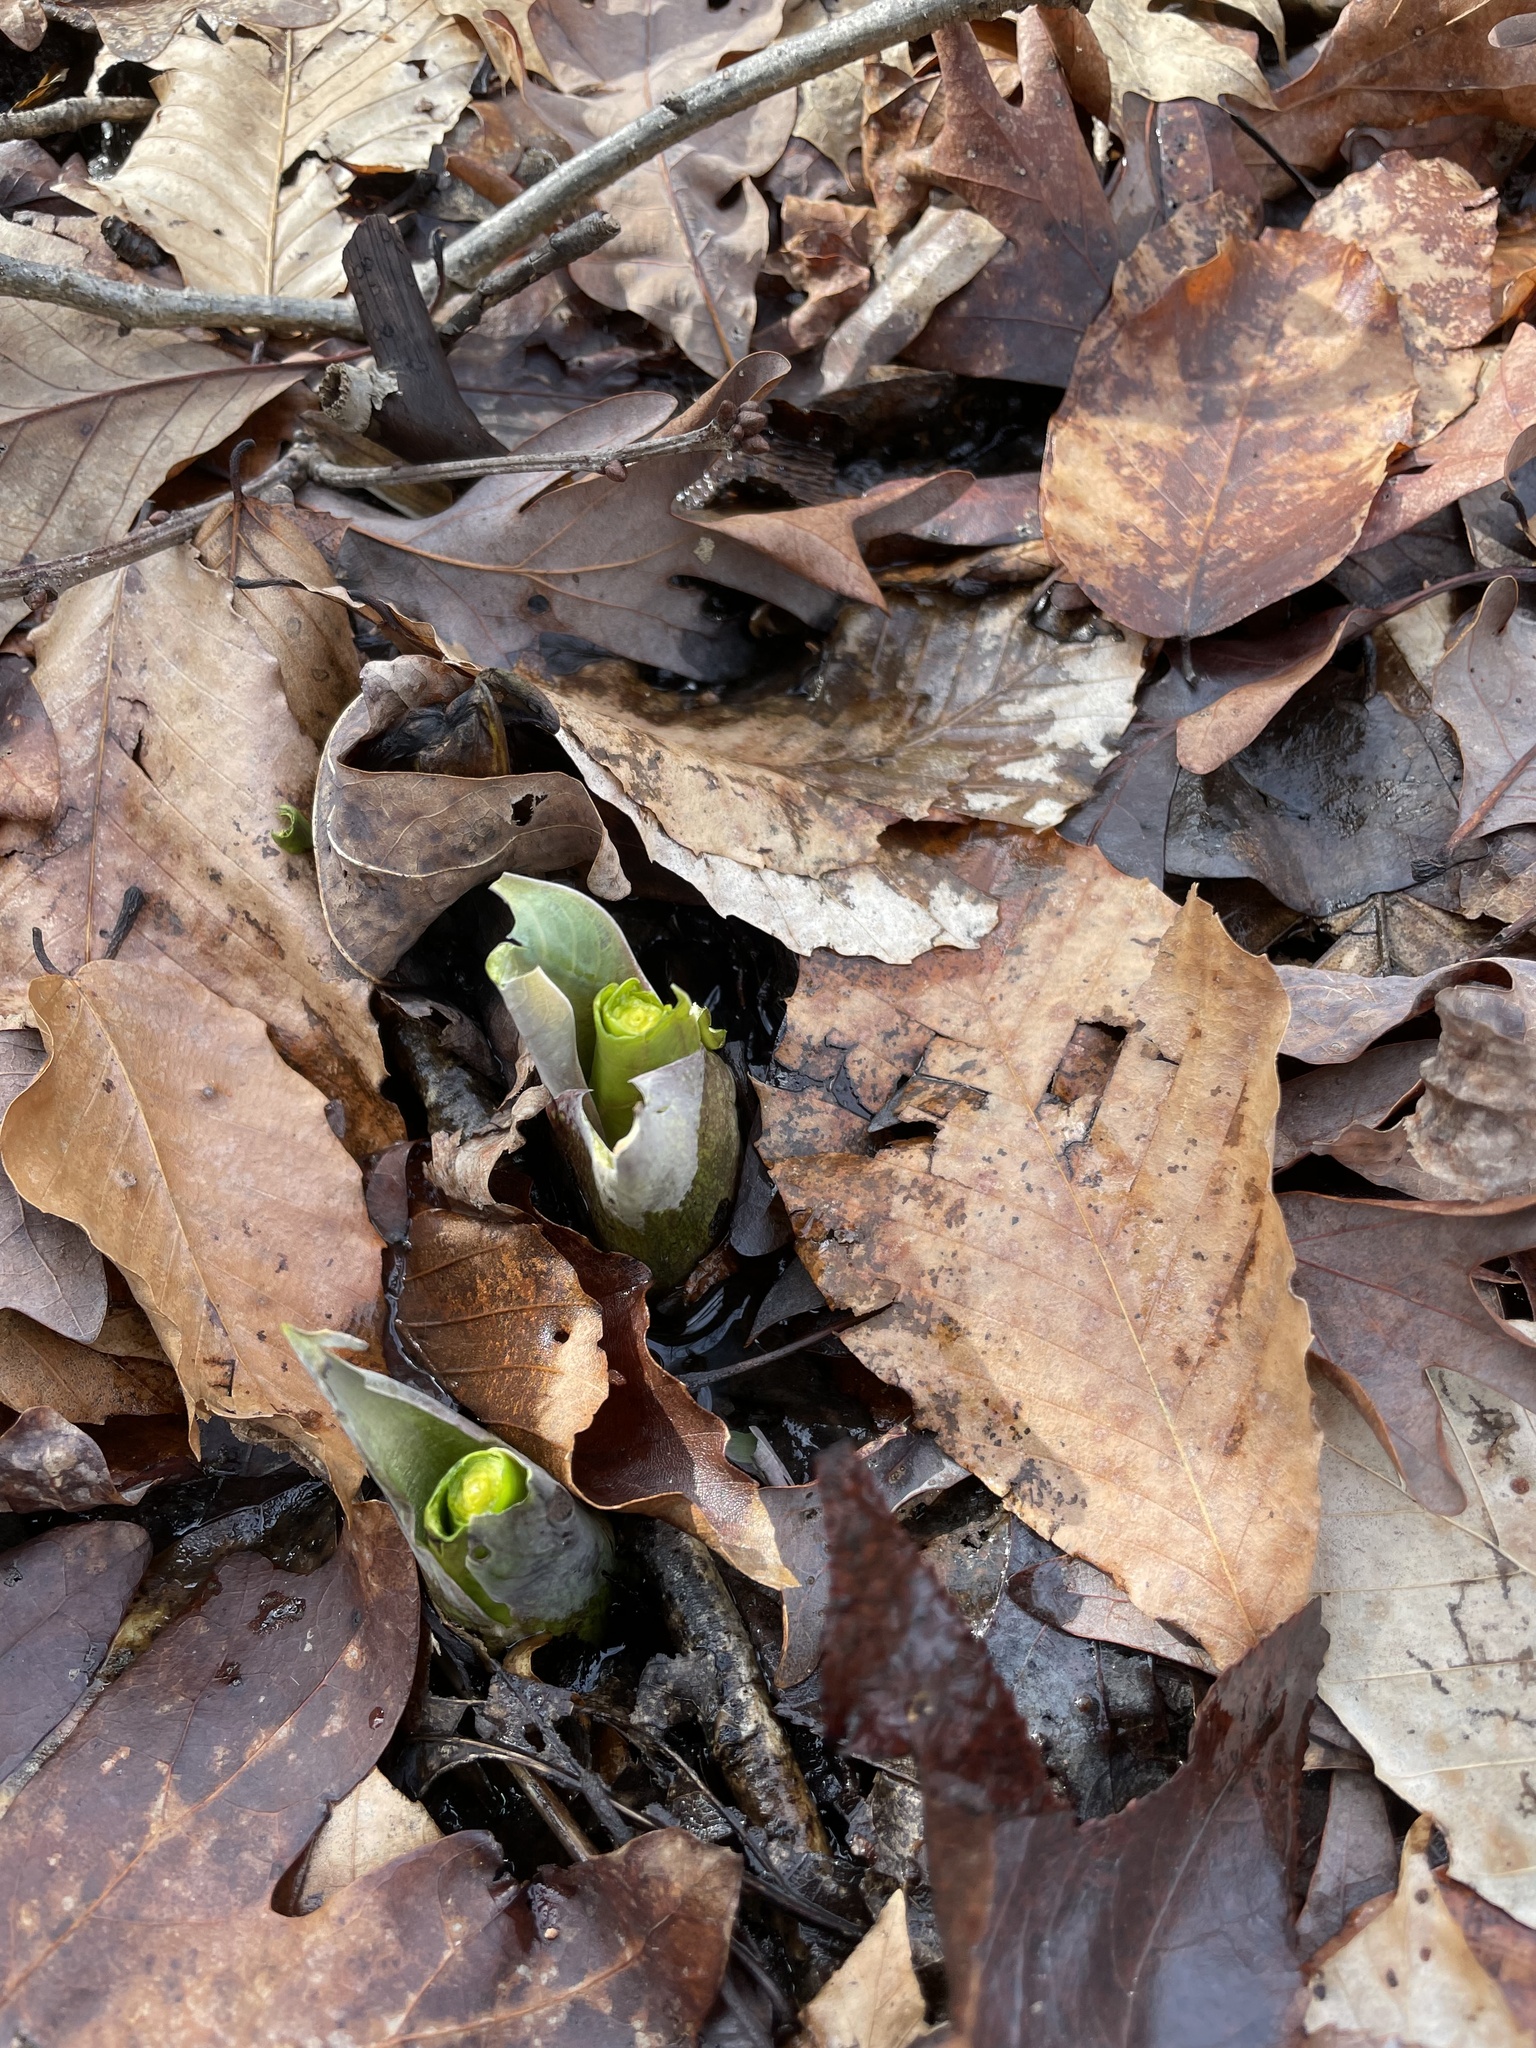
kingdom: Plantae
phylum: Tracheophyta
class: Liliopsida
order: Alismatales
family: Araceae
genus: Symplocarpus
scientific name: Symplocarpus foetidus
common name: Eastern skunk cabbage
